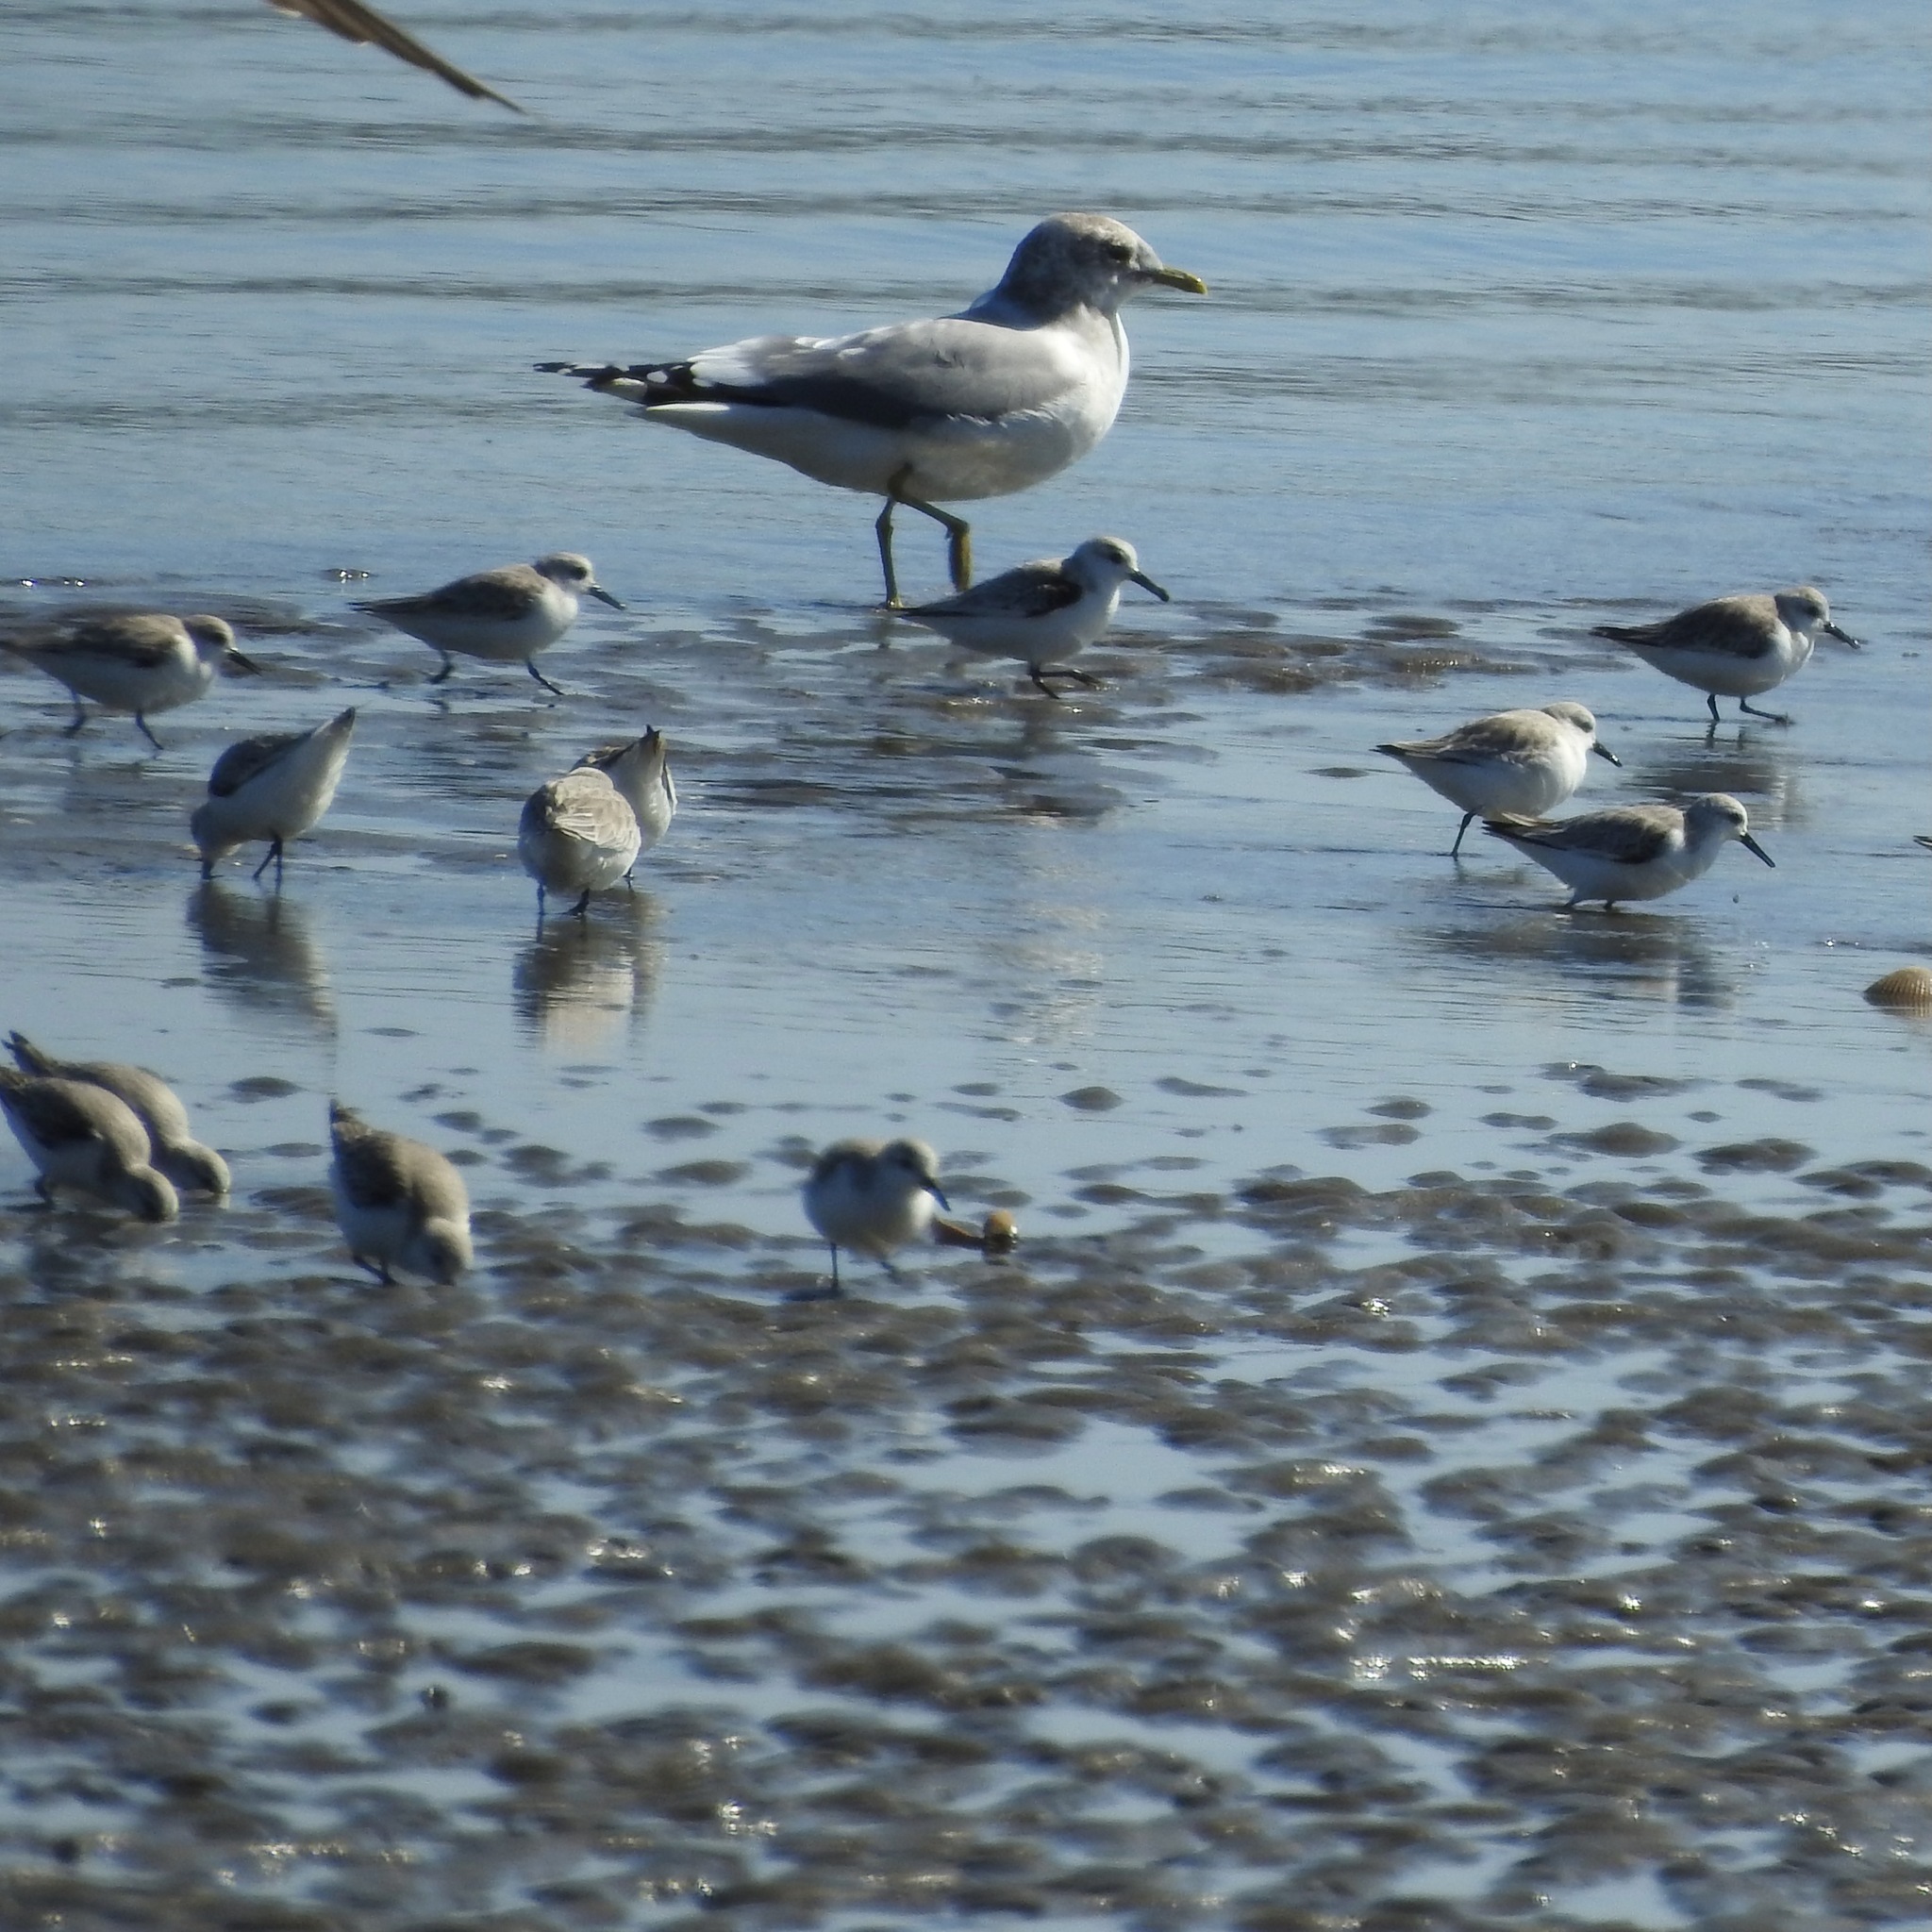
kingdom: Animalia
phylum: Chordata
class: Aves
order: Charadriiformes
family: Scolopacidae
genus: Calidris
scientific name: Calidris alba
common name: Sanderling
